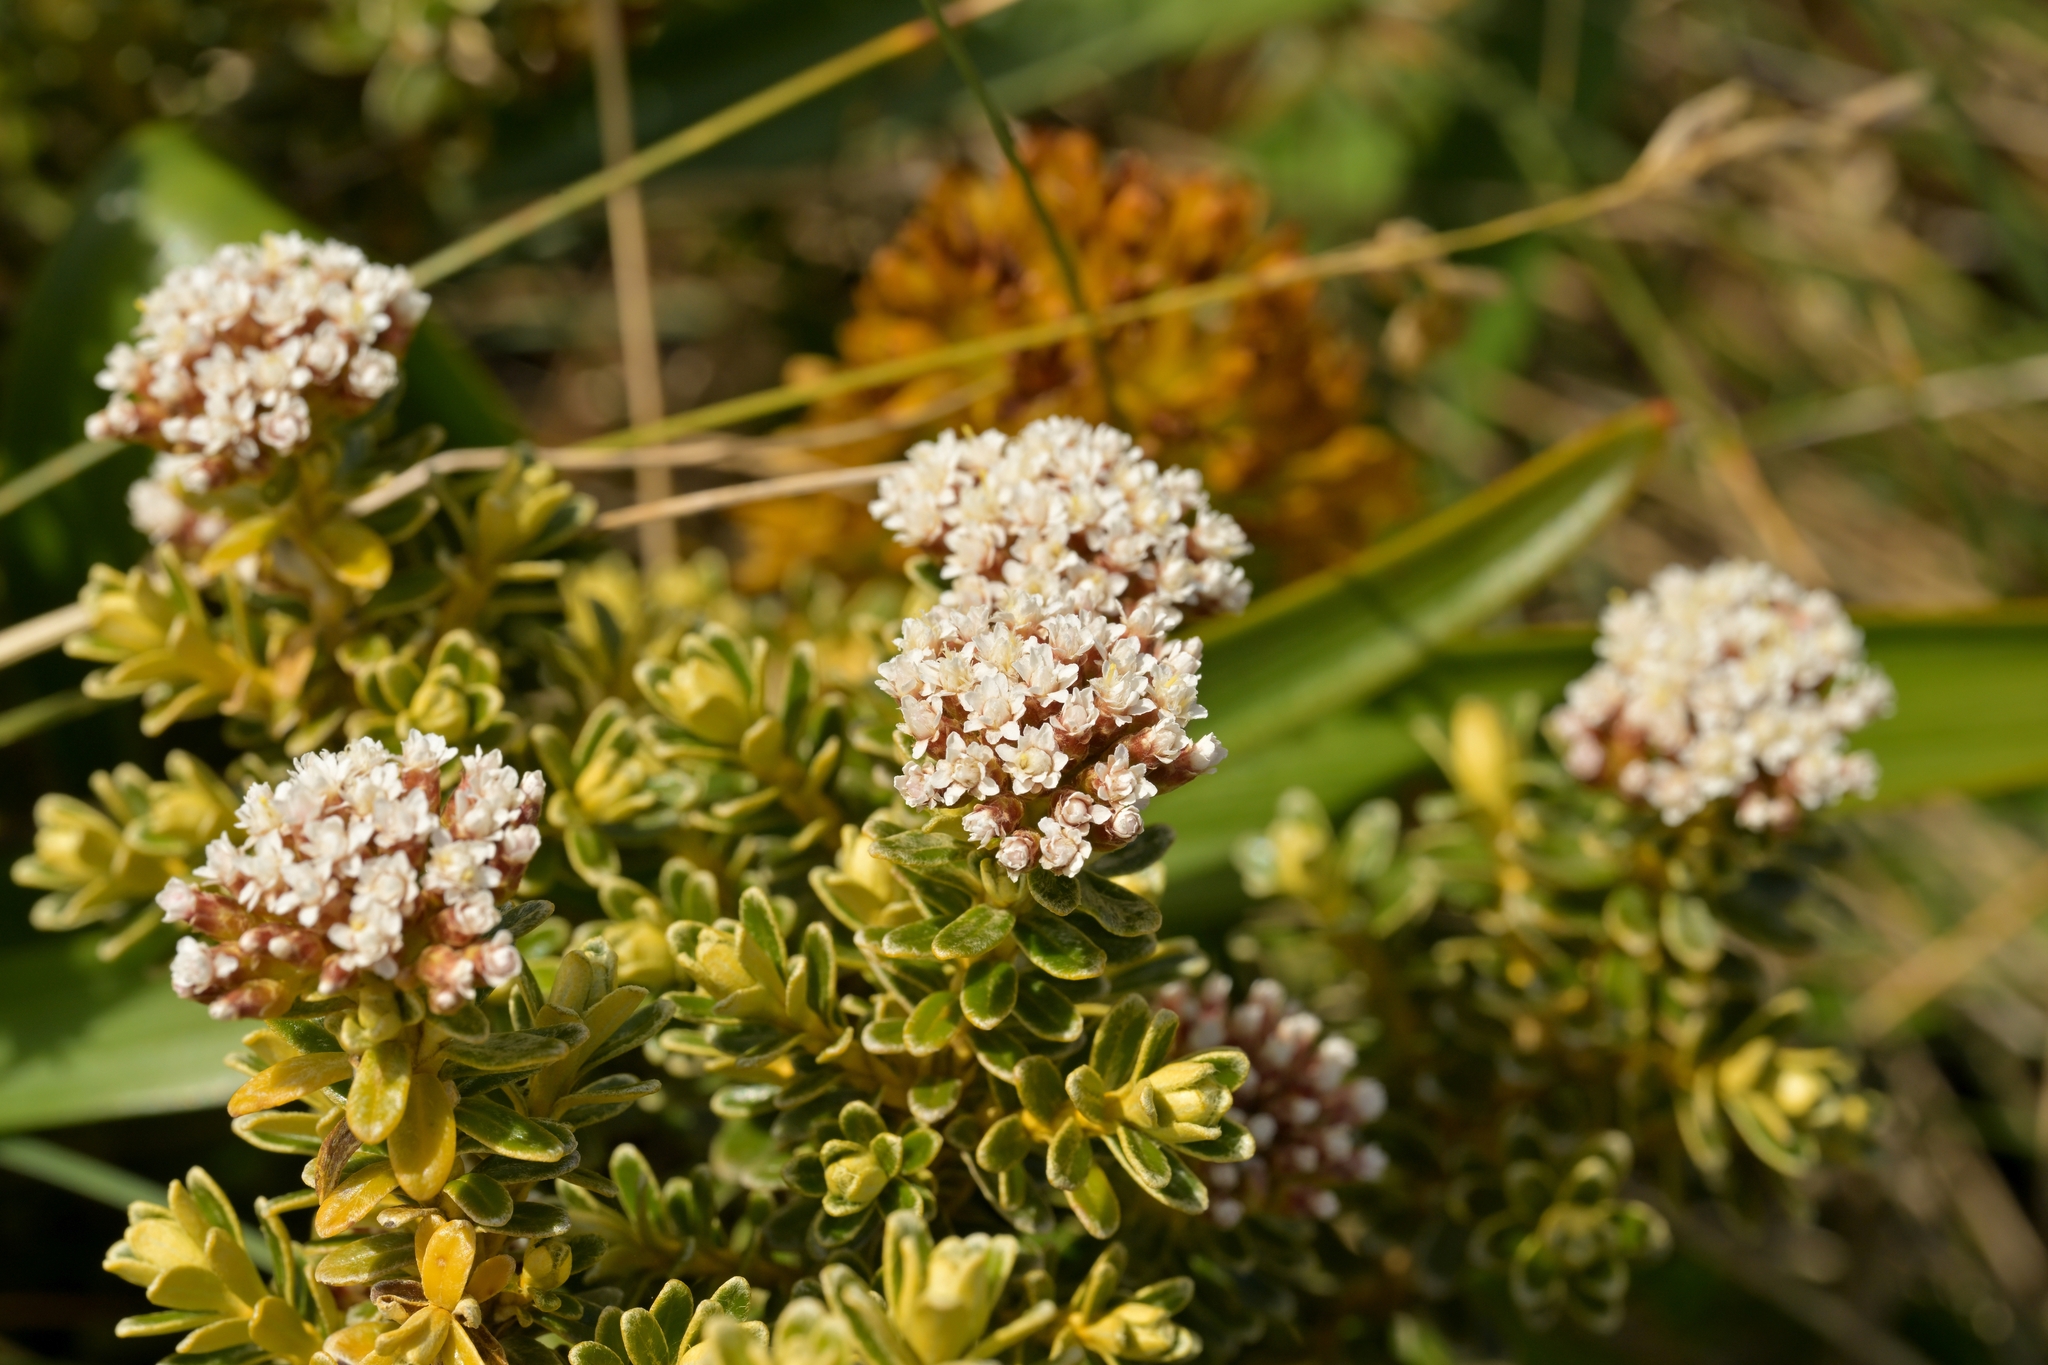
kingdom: Plantae
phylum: Tracheophyta
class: Magnoliopsida
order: Asterales
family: Asteraceae
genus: Ozothamnus
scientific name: Ozothamnus leptophyllus
